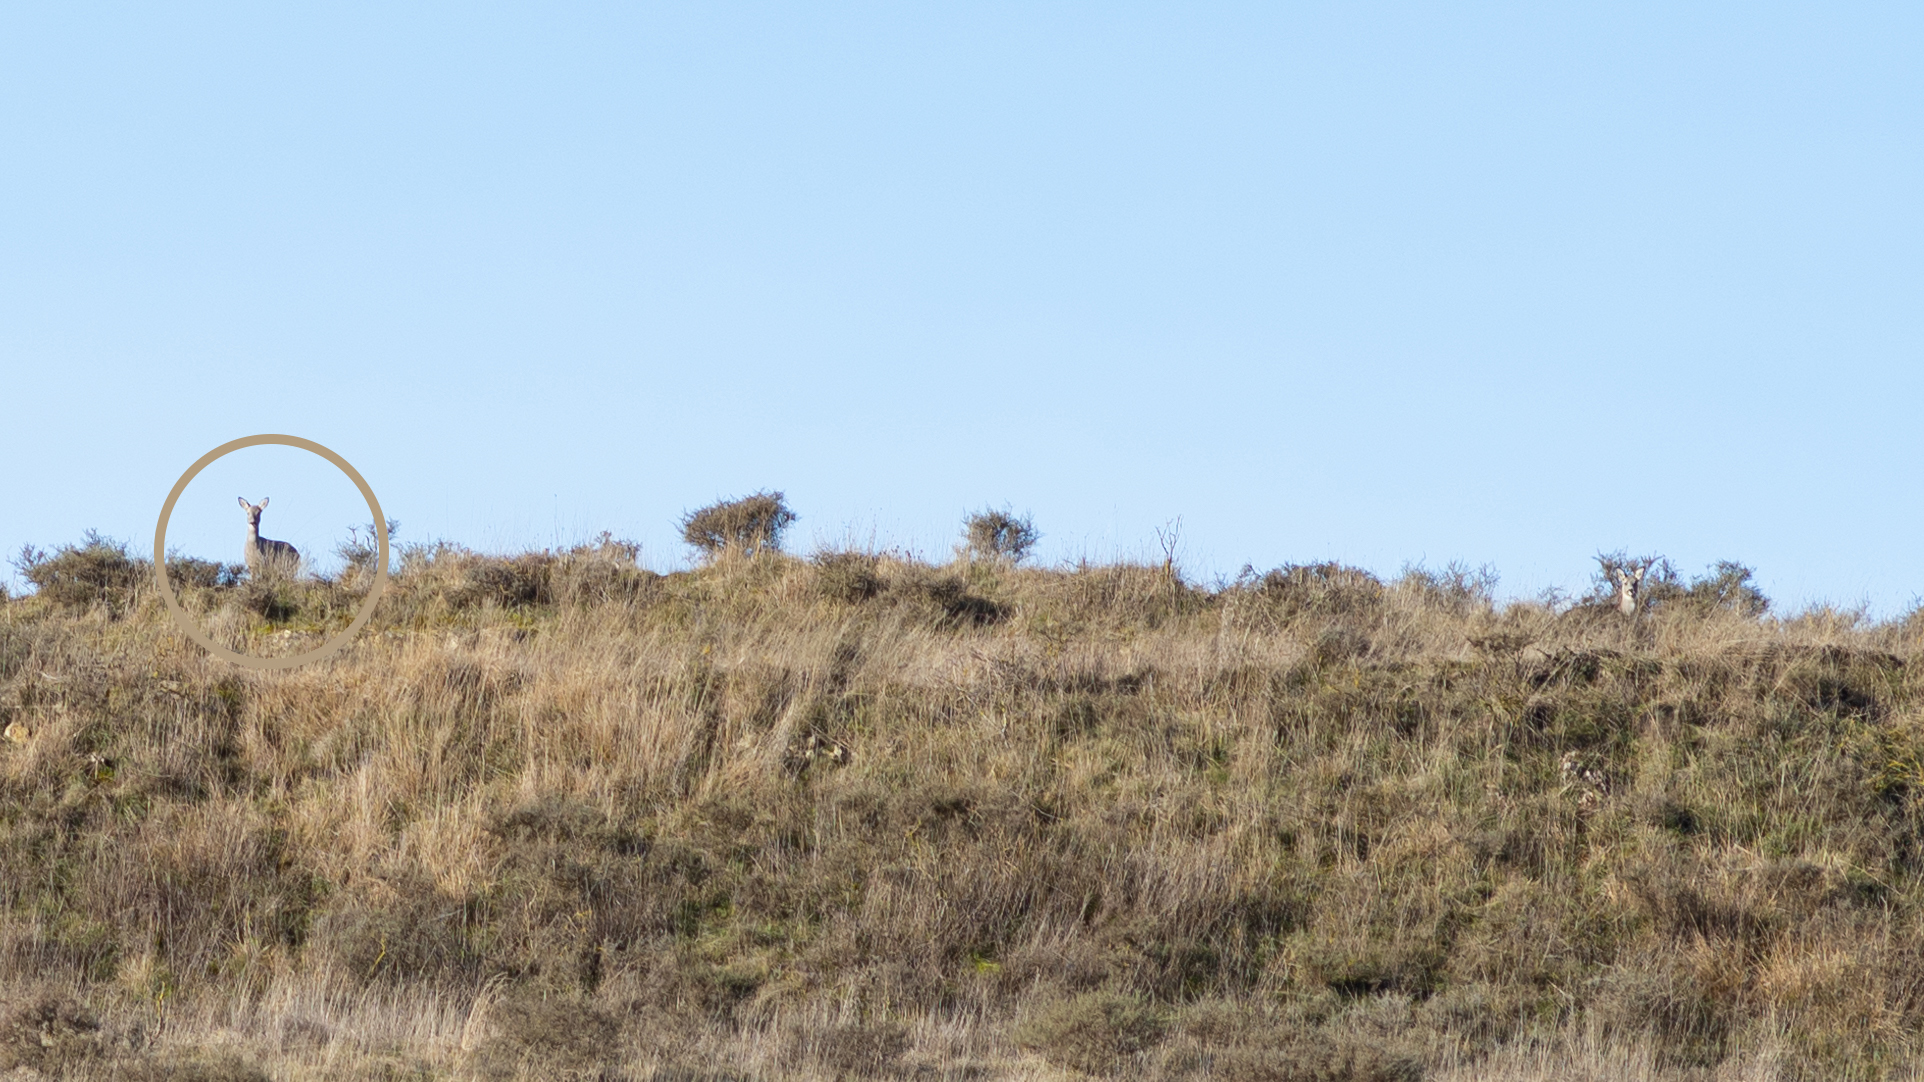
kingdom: Animalia
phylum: Chordata
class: Mammalia
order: Artiodactyla
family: Cervidae
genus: Capreolus
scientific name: Capreolus capreolus
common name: Western roe deer
